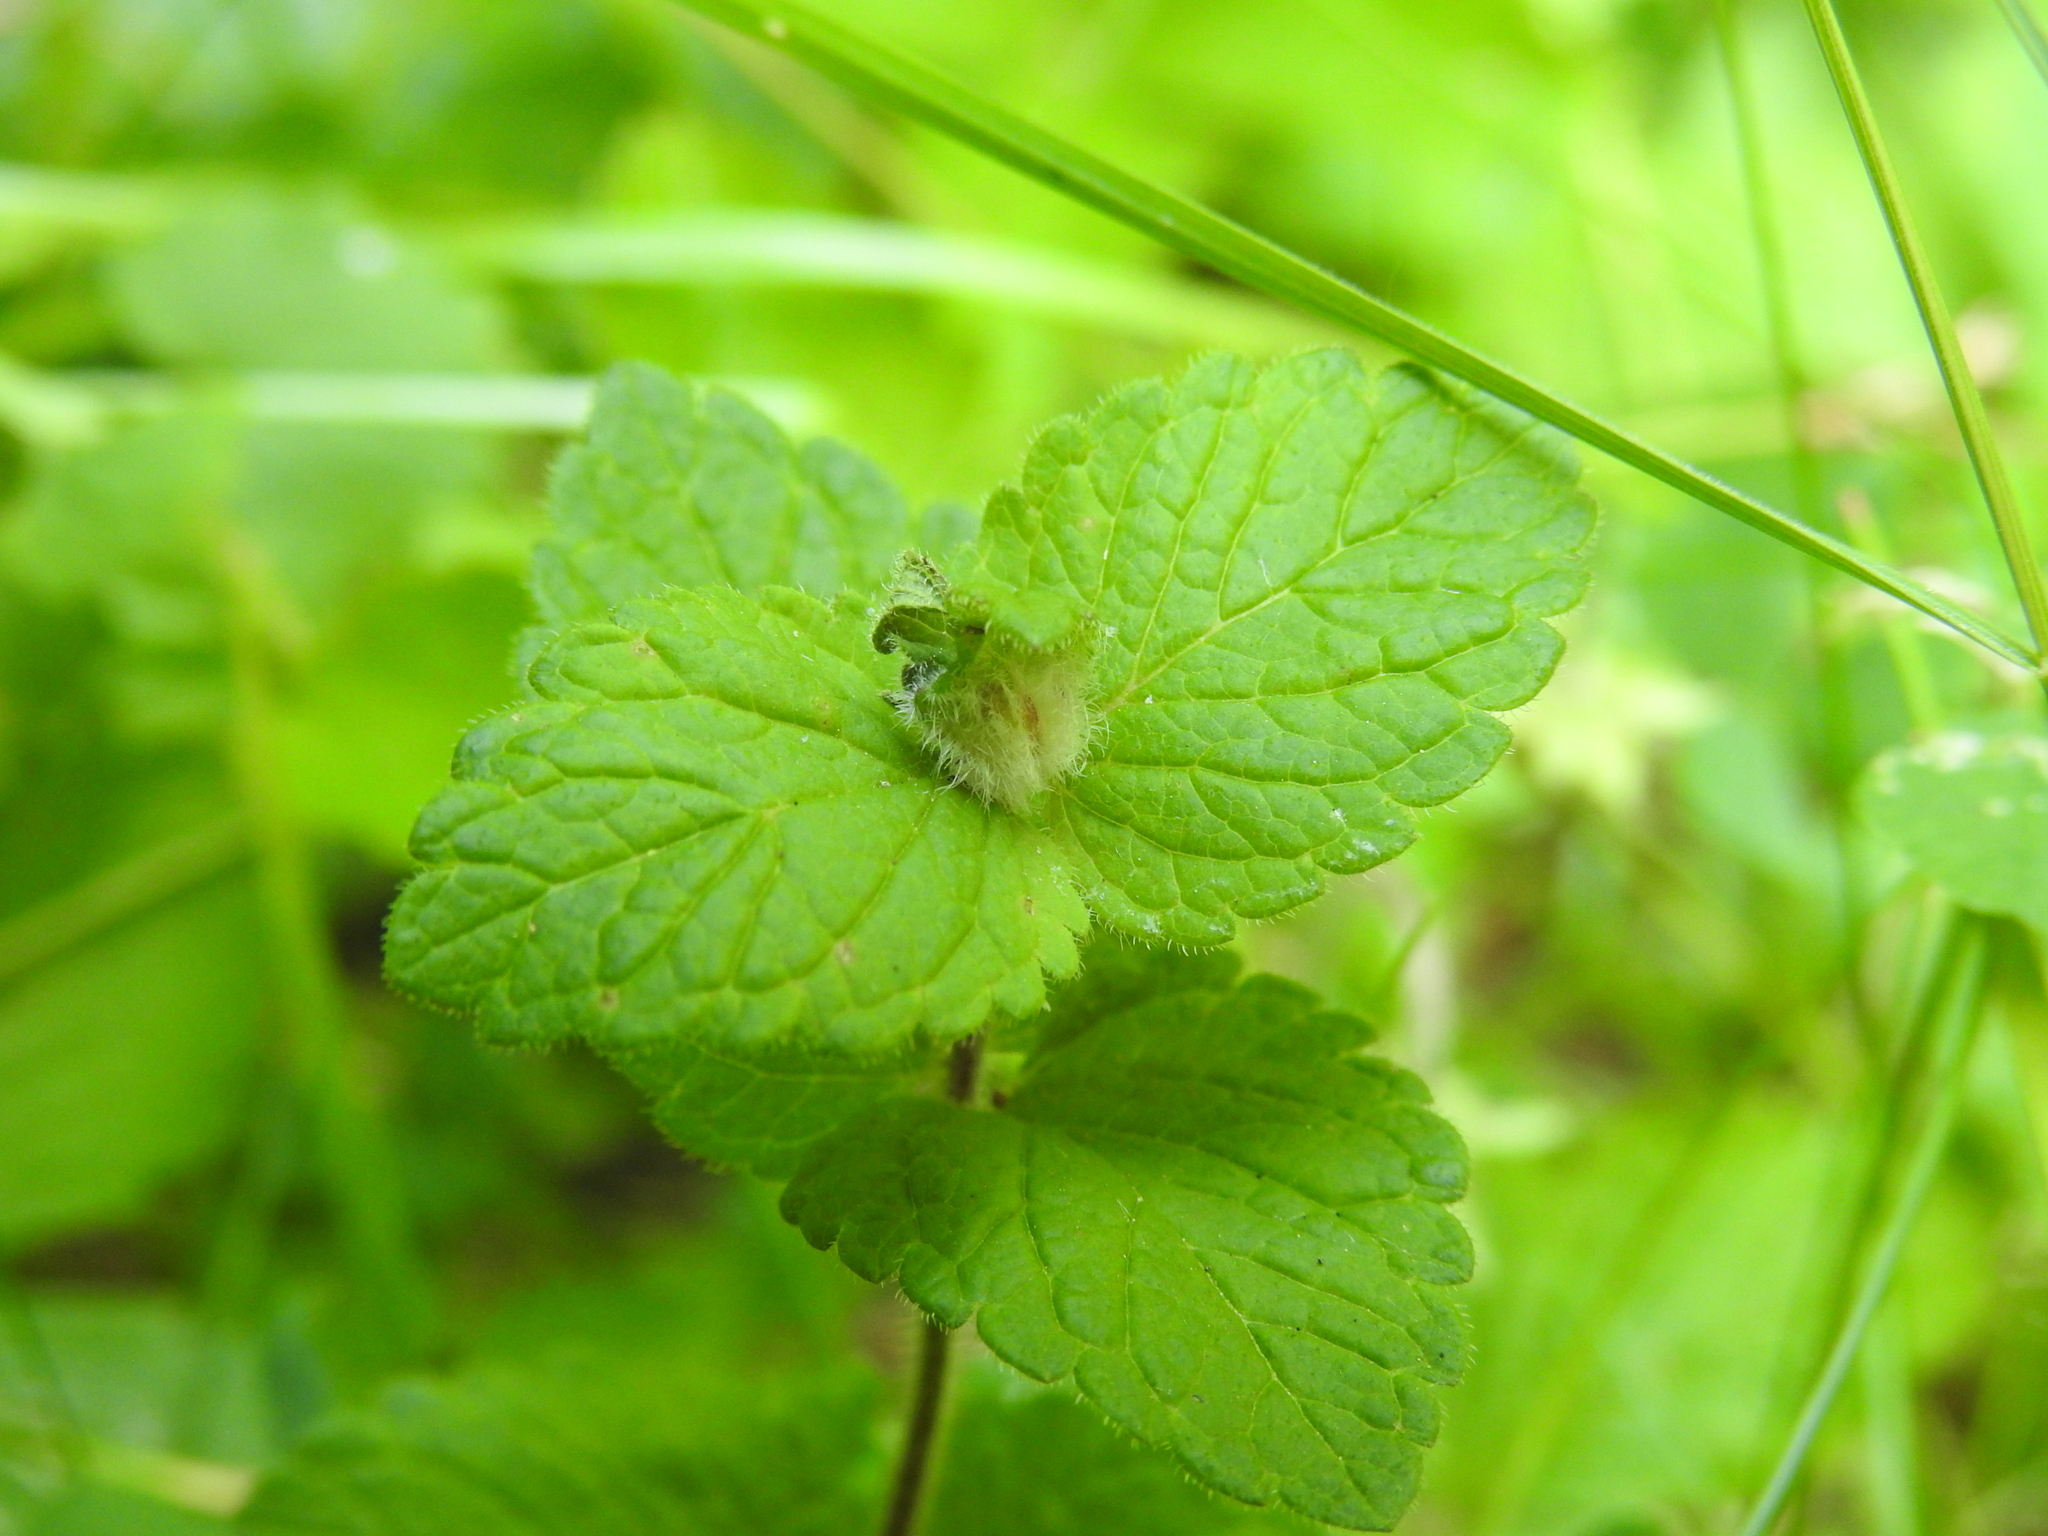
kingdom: Animalia
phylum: Arthropoda
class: Insecta
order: Diptera
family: Cecidomyiidae
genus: Jaapiella
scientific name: Jaapiella veronicae
